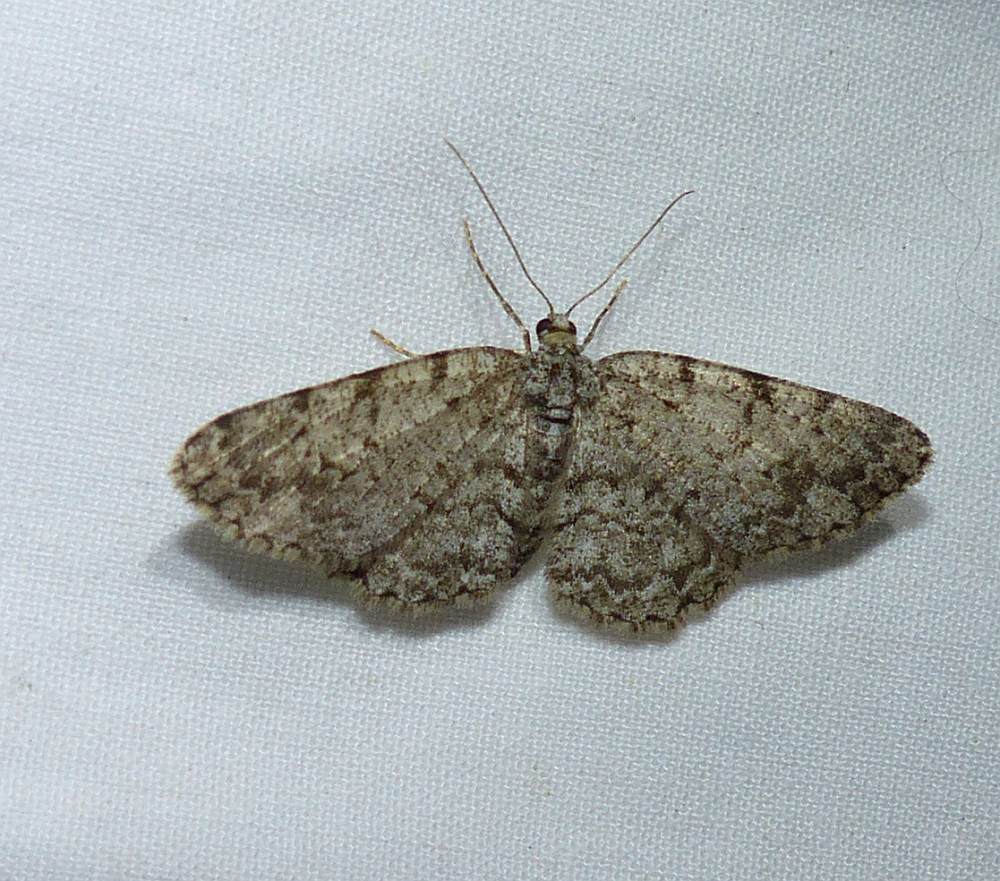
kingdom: Animalia
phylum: Arthropoda
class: Insecta
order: Lepidoptera
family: Geometridae
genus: Aethalura
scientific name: Aethalura intertexta
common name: Four-barred gray
